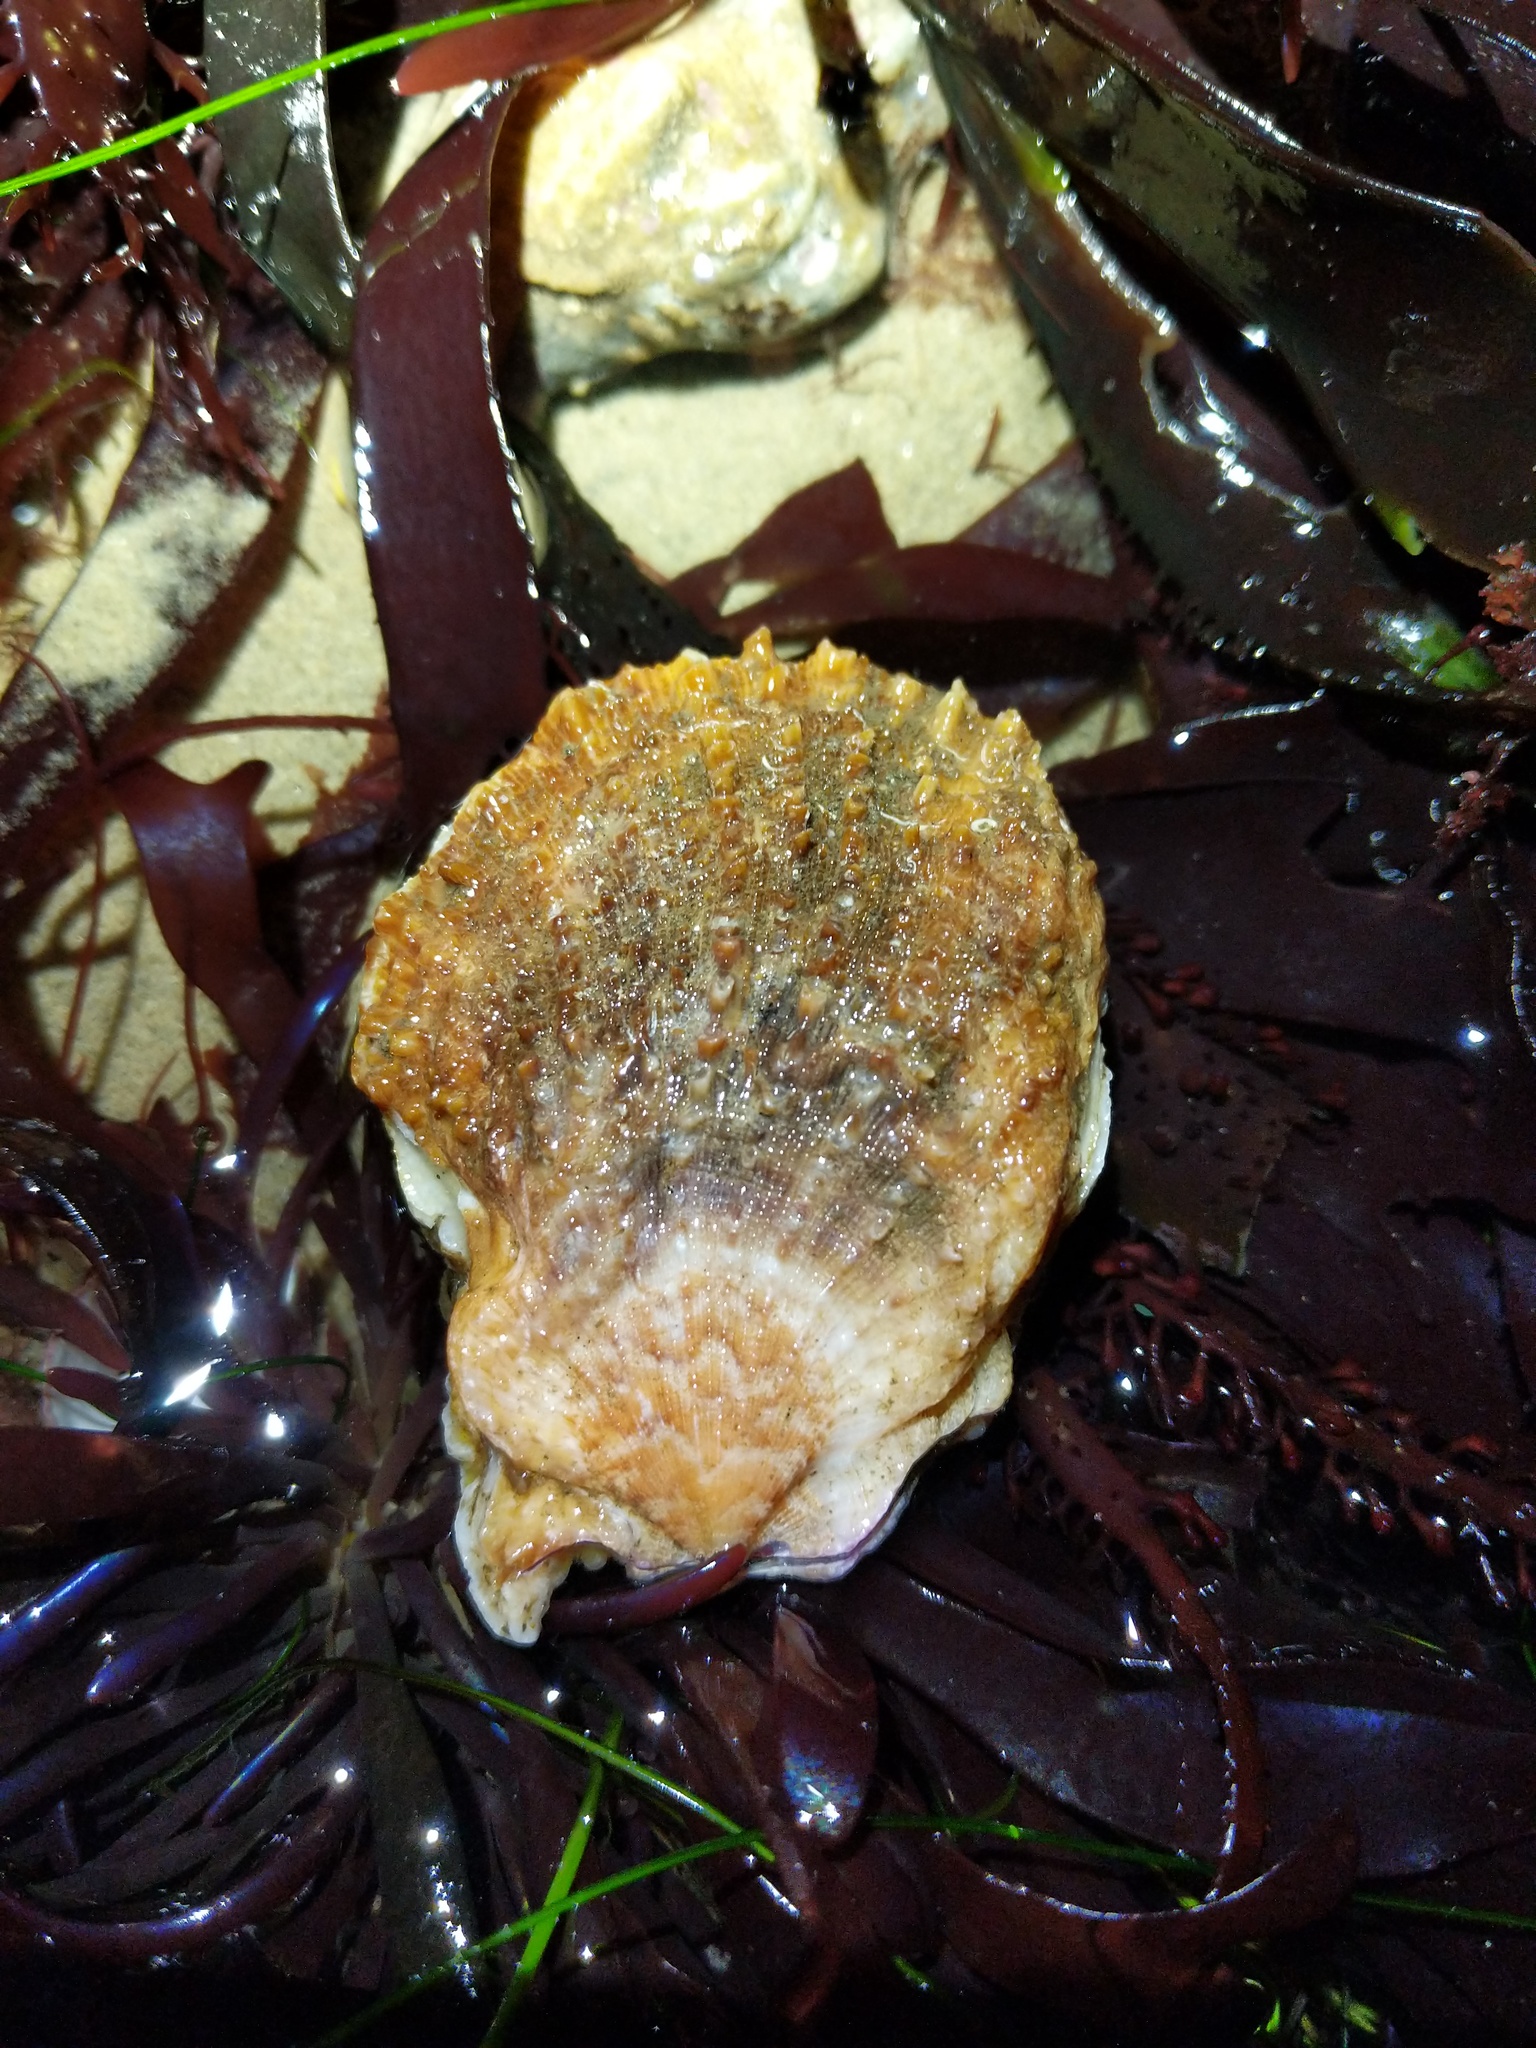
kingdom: Animalia
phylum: Mollusca
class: Bivalvia
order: Pectinida
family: Pectinidae
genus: Crassadoma
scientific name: Crassadoma gigantea
